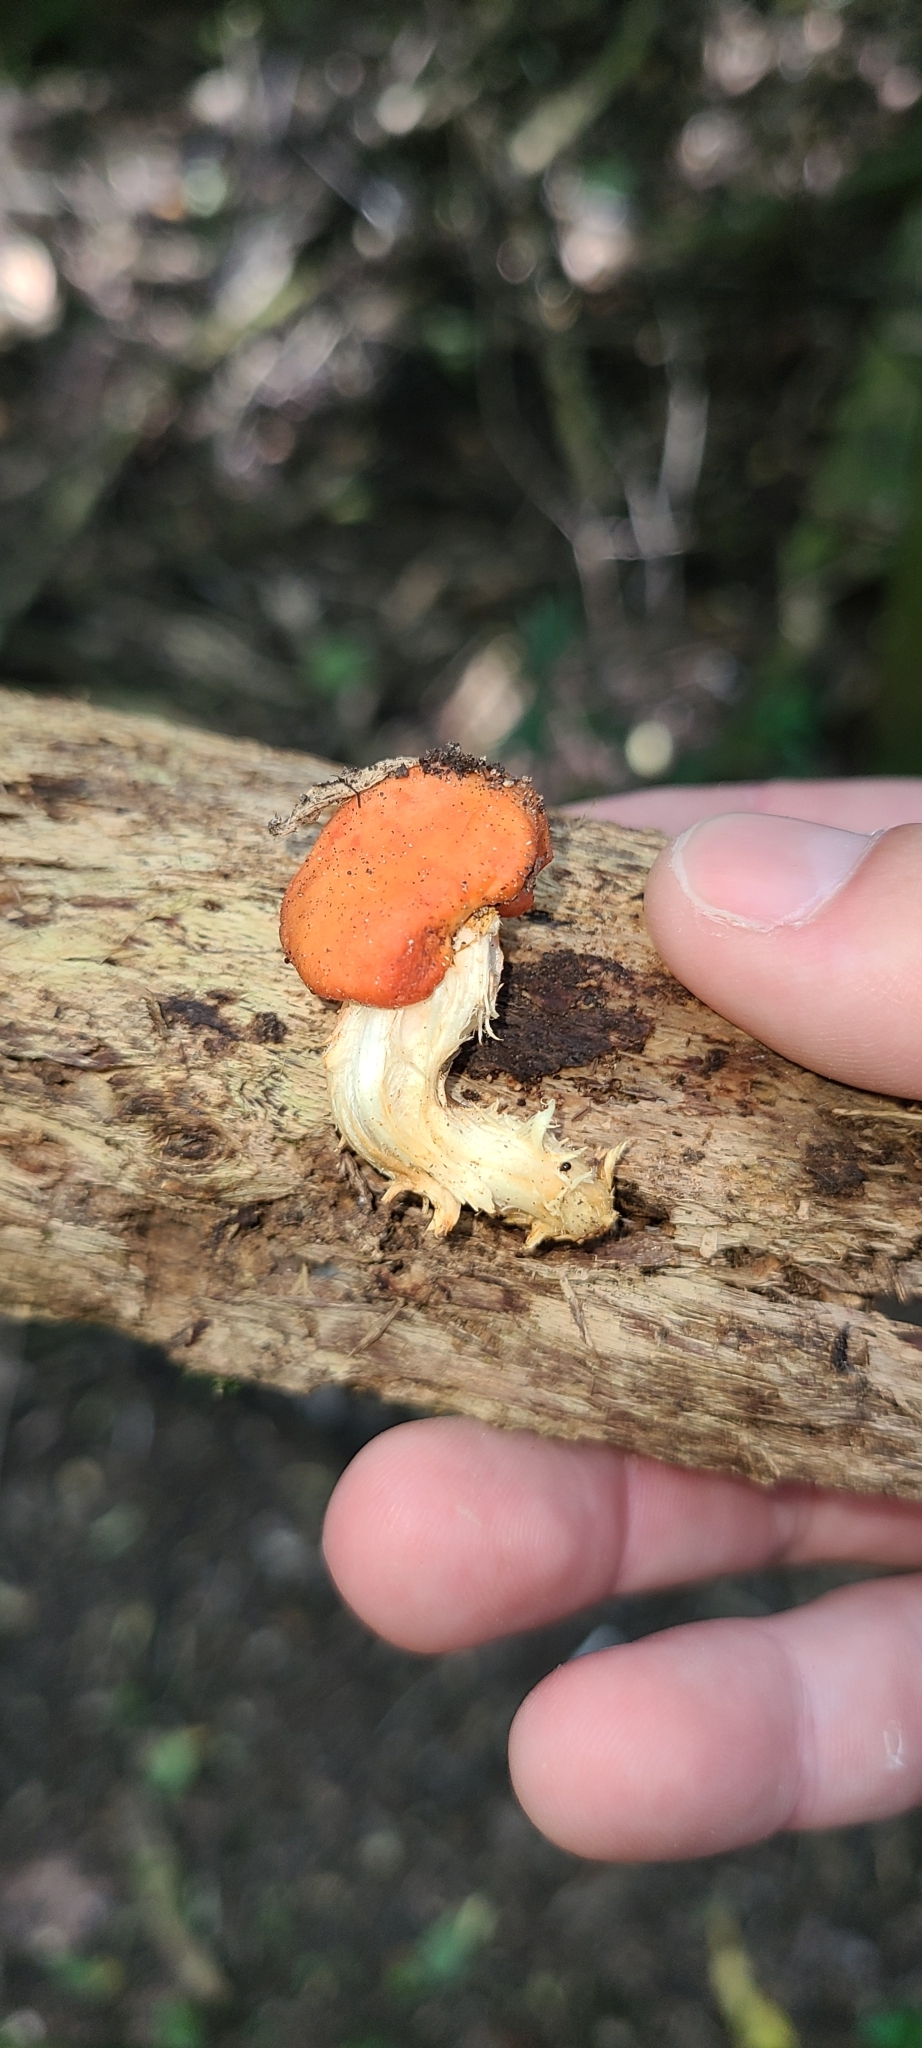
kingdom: Fungi
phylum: Basidiomycota
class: Agaricomycetes
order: Agaricales
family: Strophariaceae
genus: Leratiomyces
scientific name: Leratiomyces erythrocephalus
